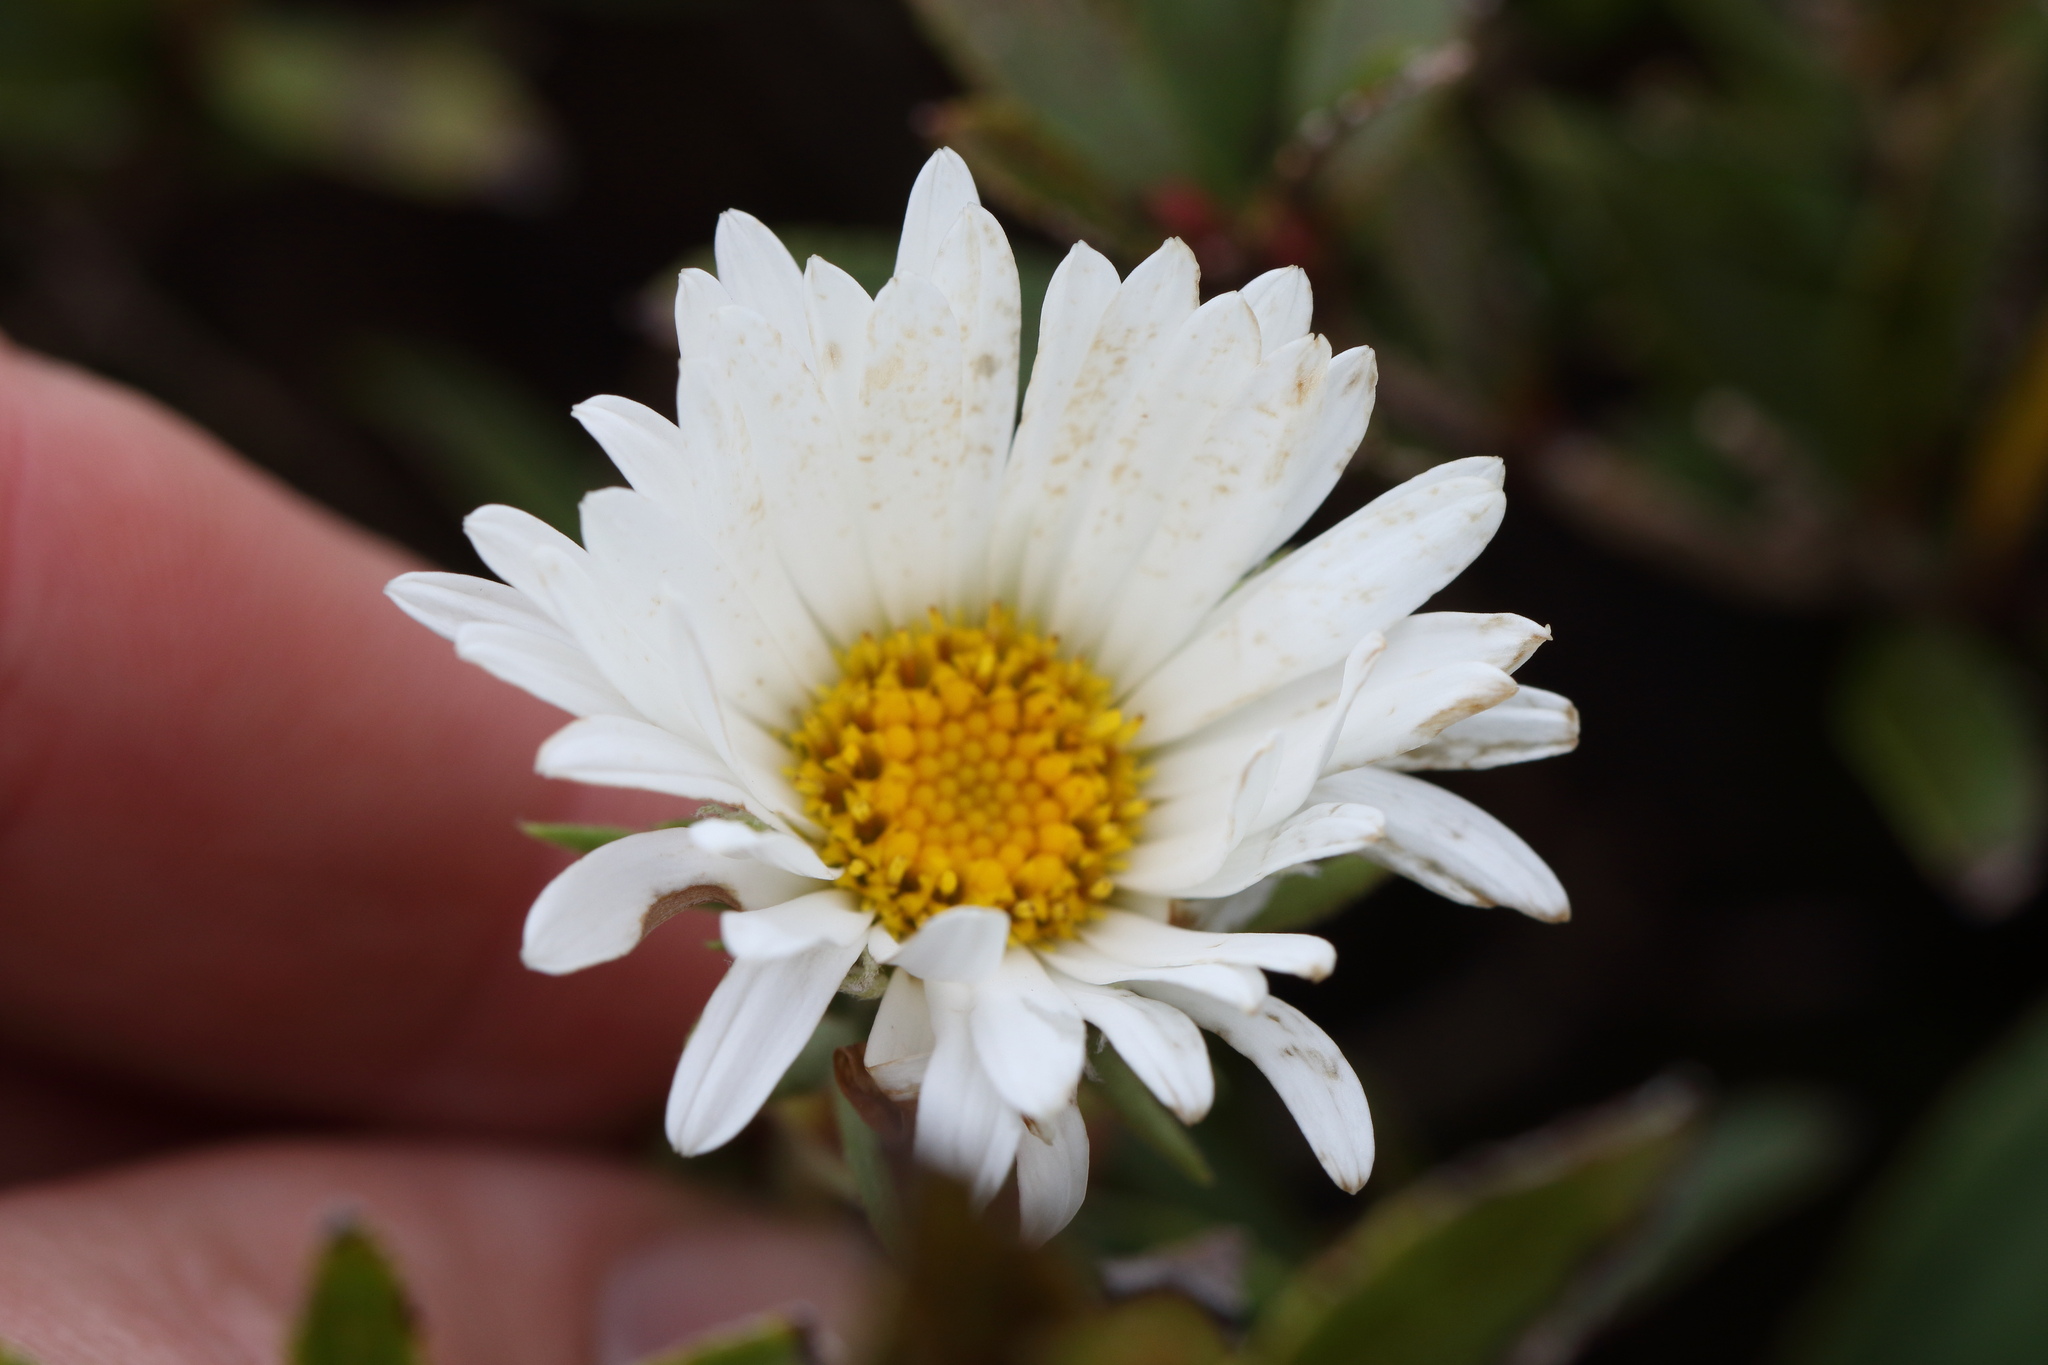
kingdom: Plantae
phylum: Tracheophyta
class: Magnoliopsida
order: Asterales
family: Asteraceae
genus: Celmisia
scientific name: Celmisia hieraciifolia
